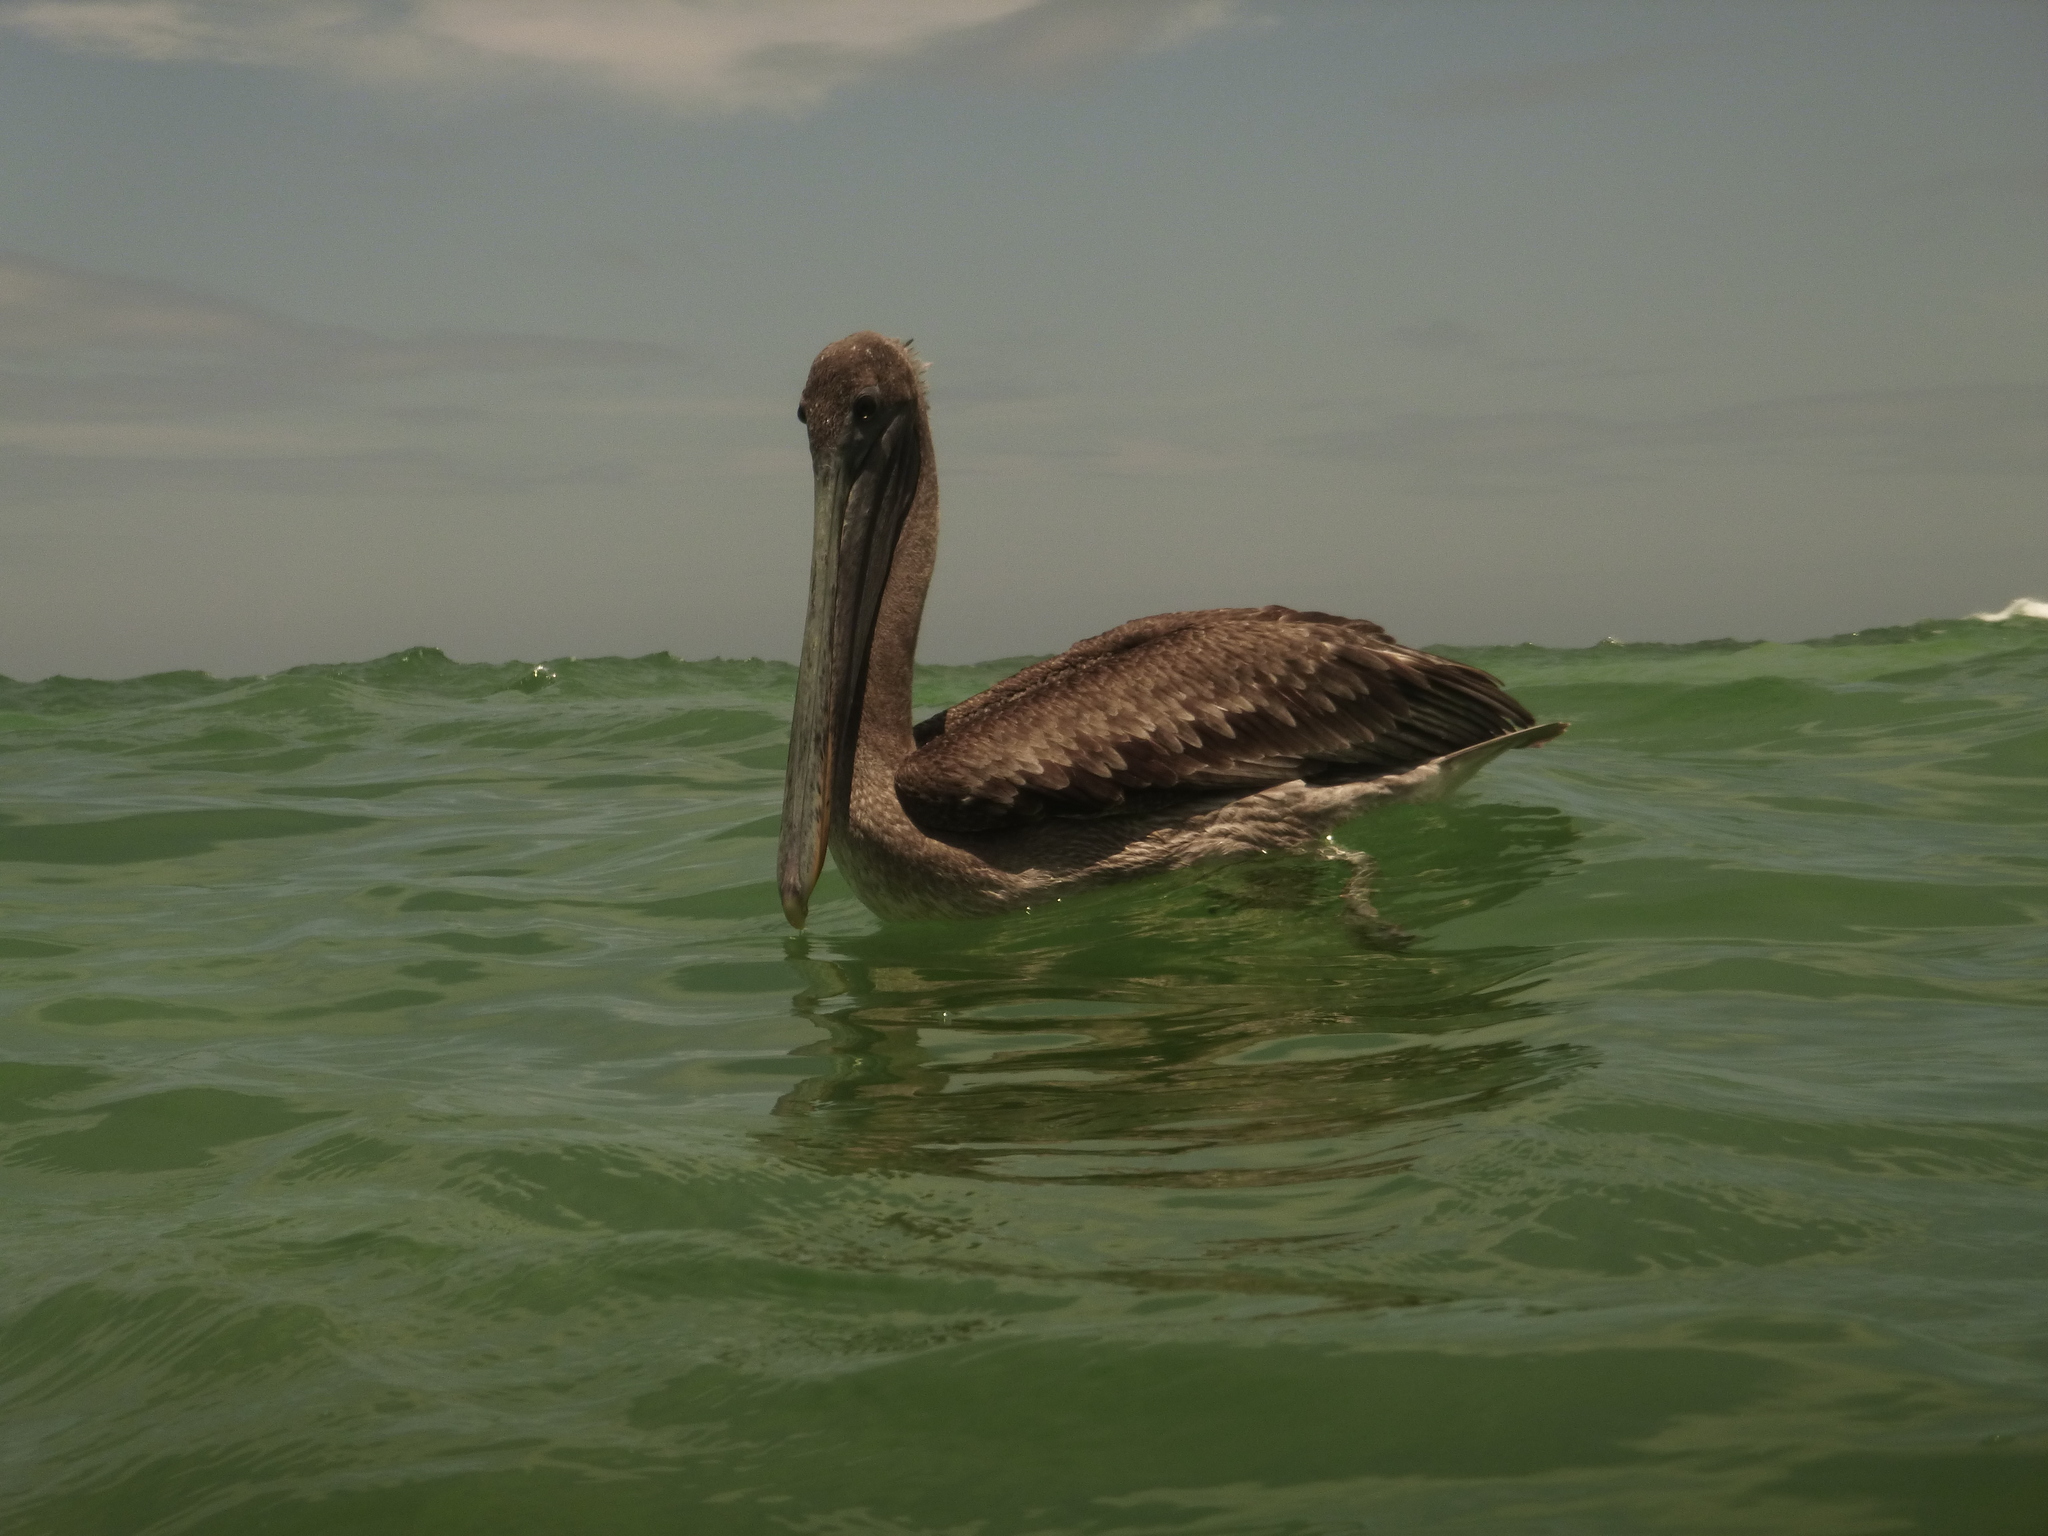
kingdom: Animalia
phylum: Chordata
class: Aves
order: Pelecaniformes
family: Pelecanidae
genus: Pelecanus
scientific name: Pelecanus occidentalis
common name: Brown pelican
